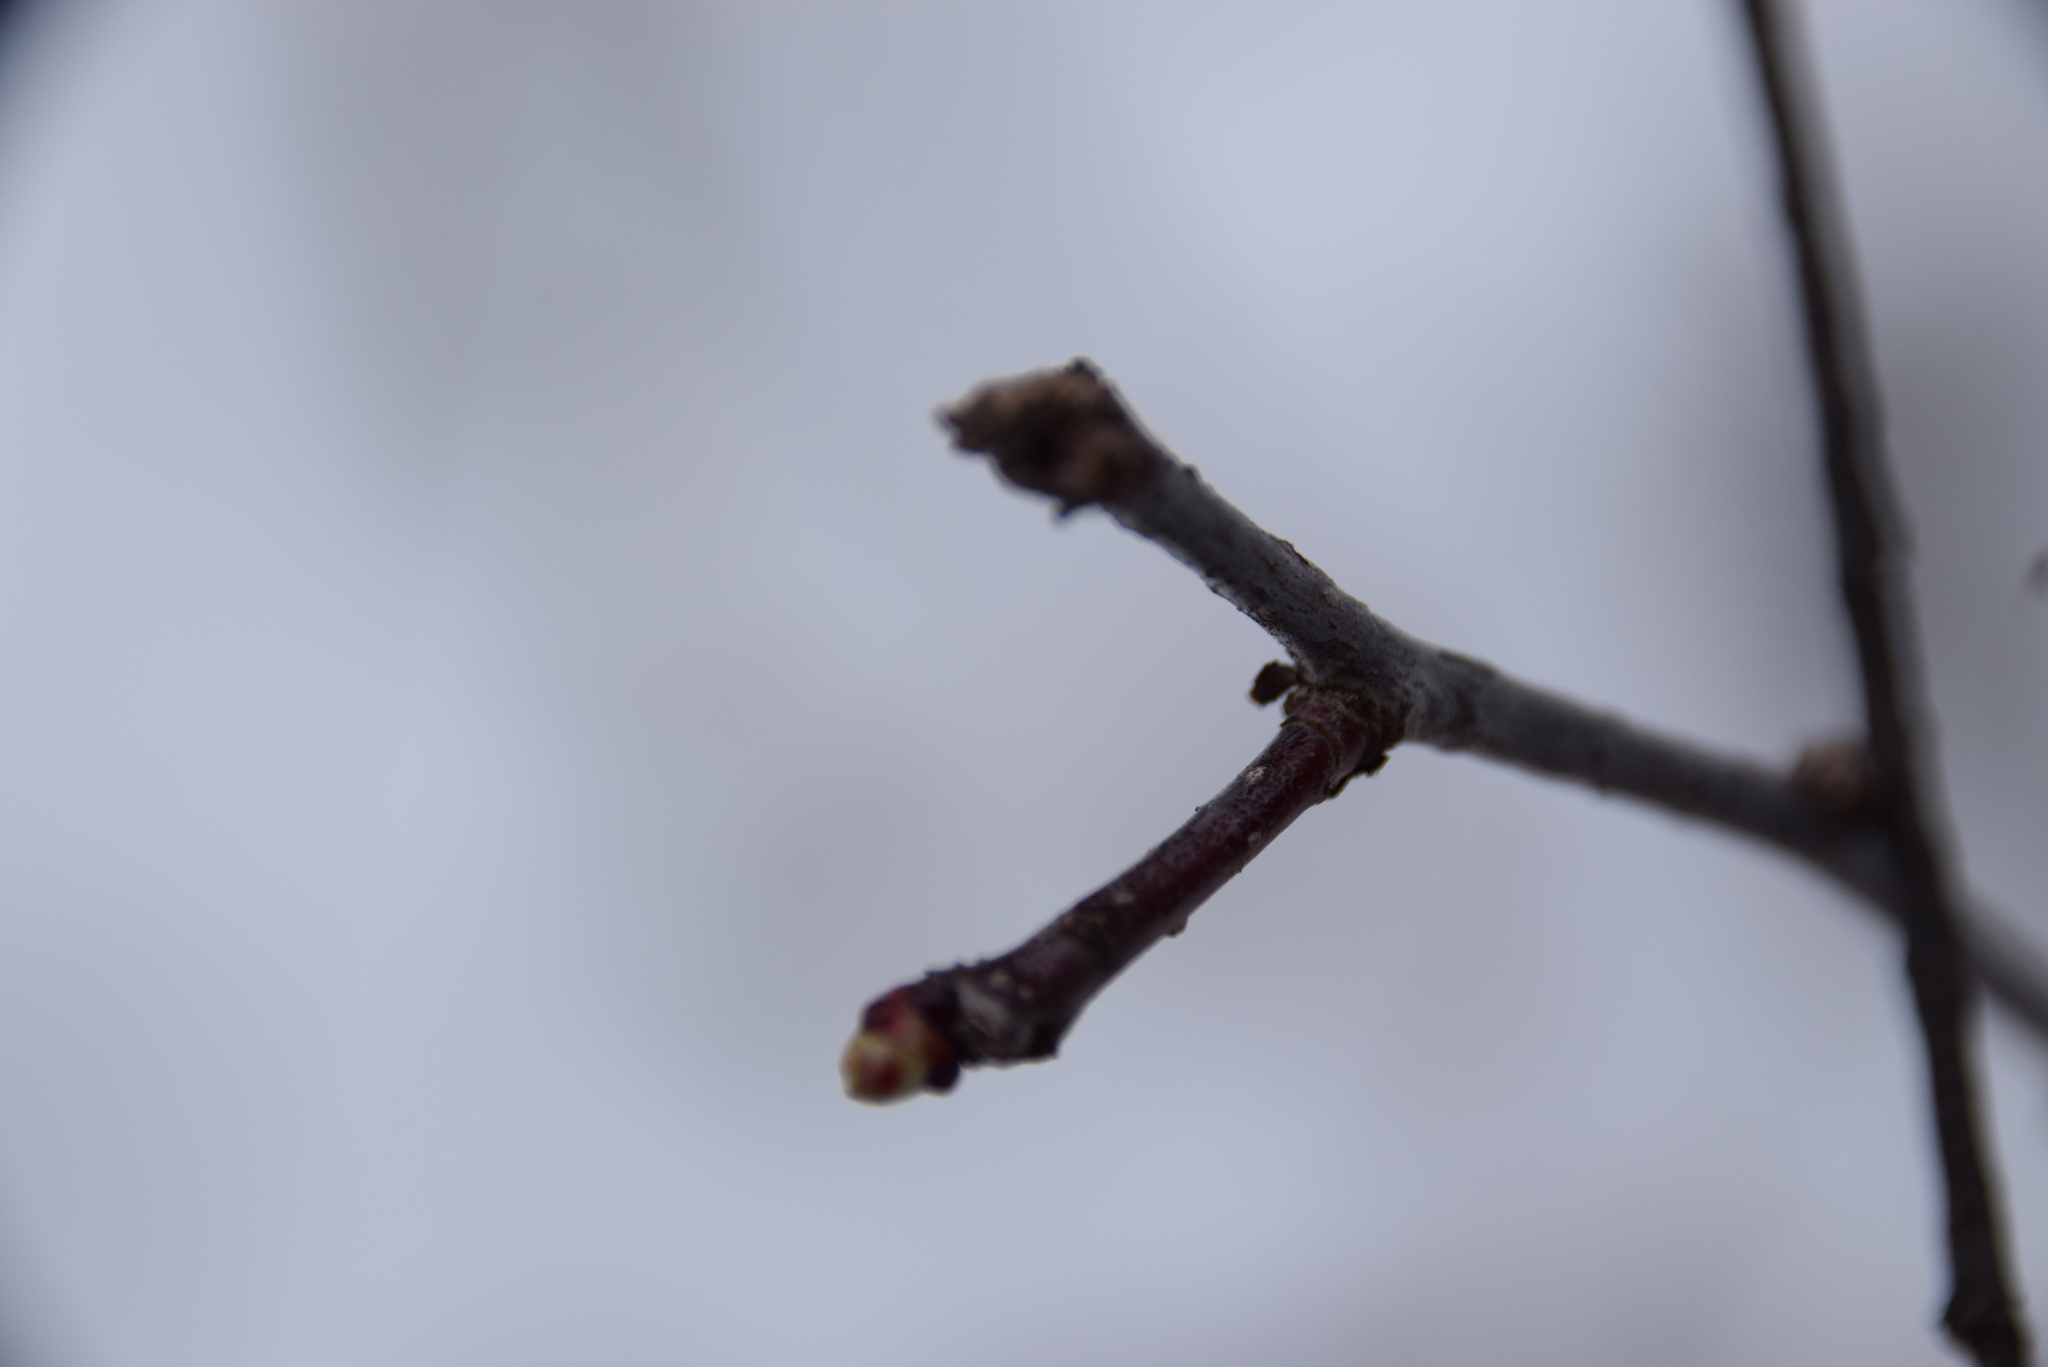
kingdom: Plantae
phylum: Tracheophyta
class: Magnoliopsida
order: Rosales
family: Rosaceae
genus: Crataegus
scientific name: Crataegus
